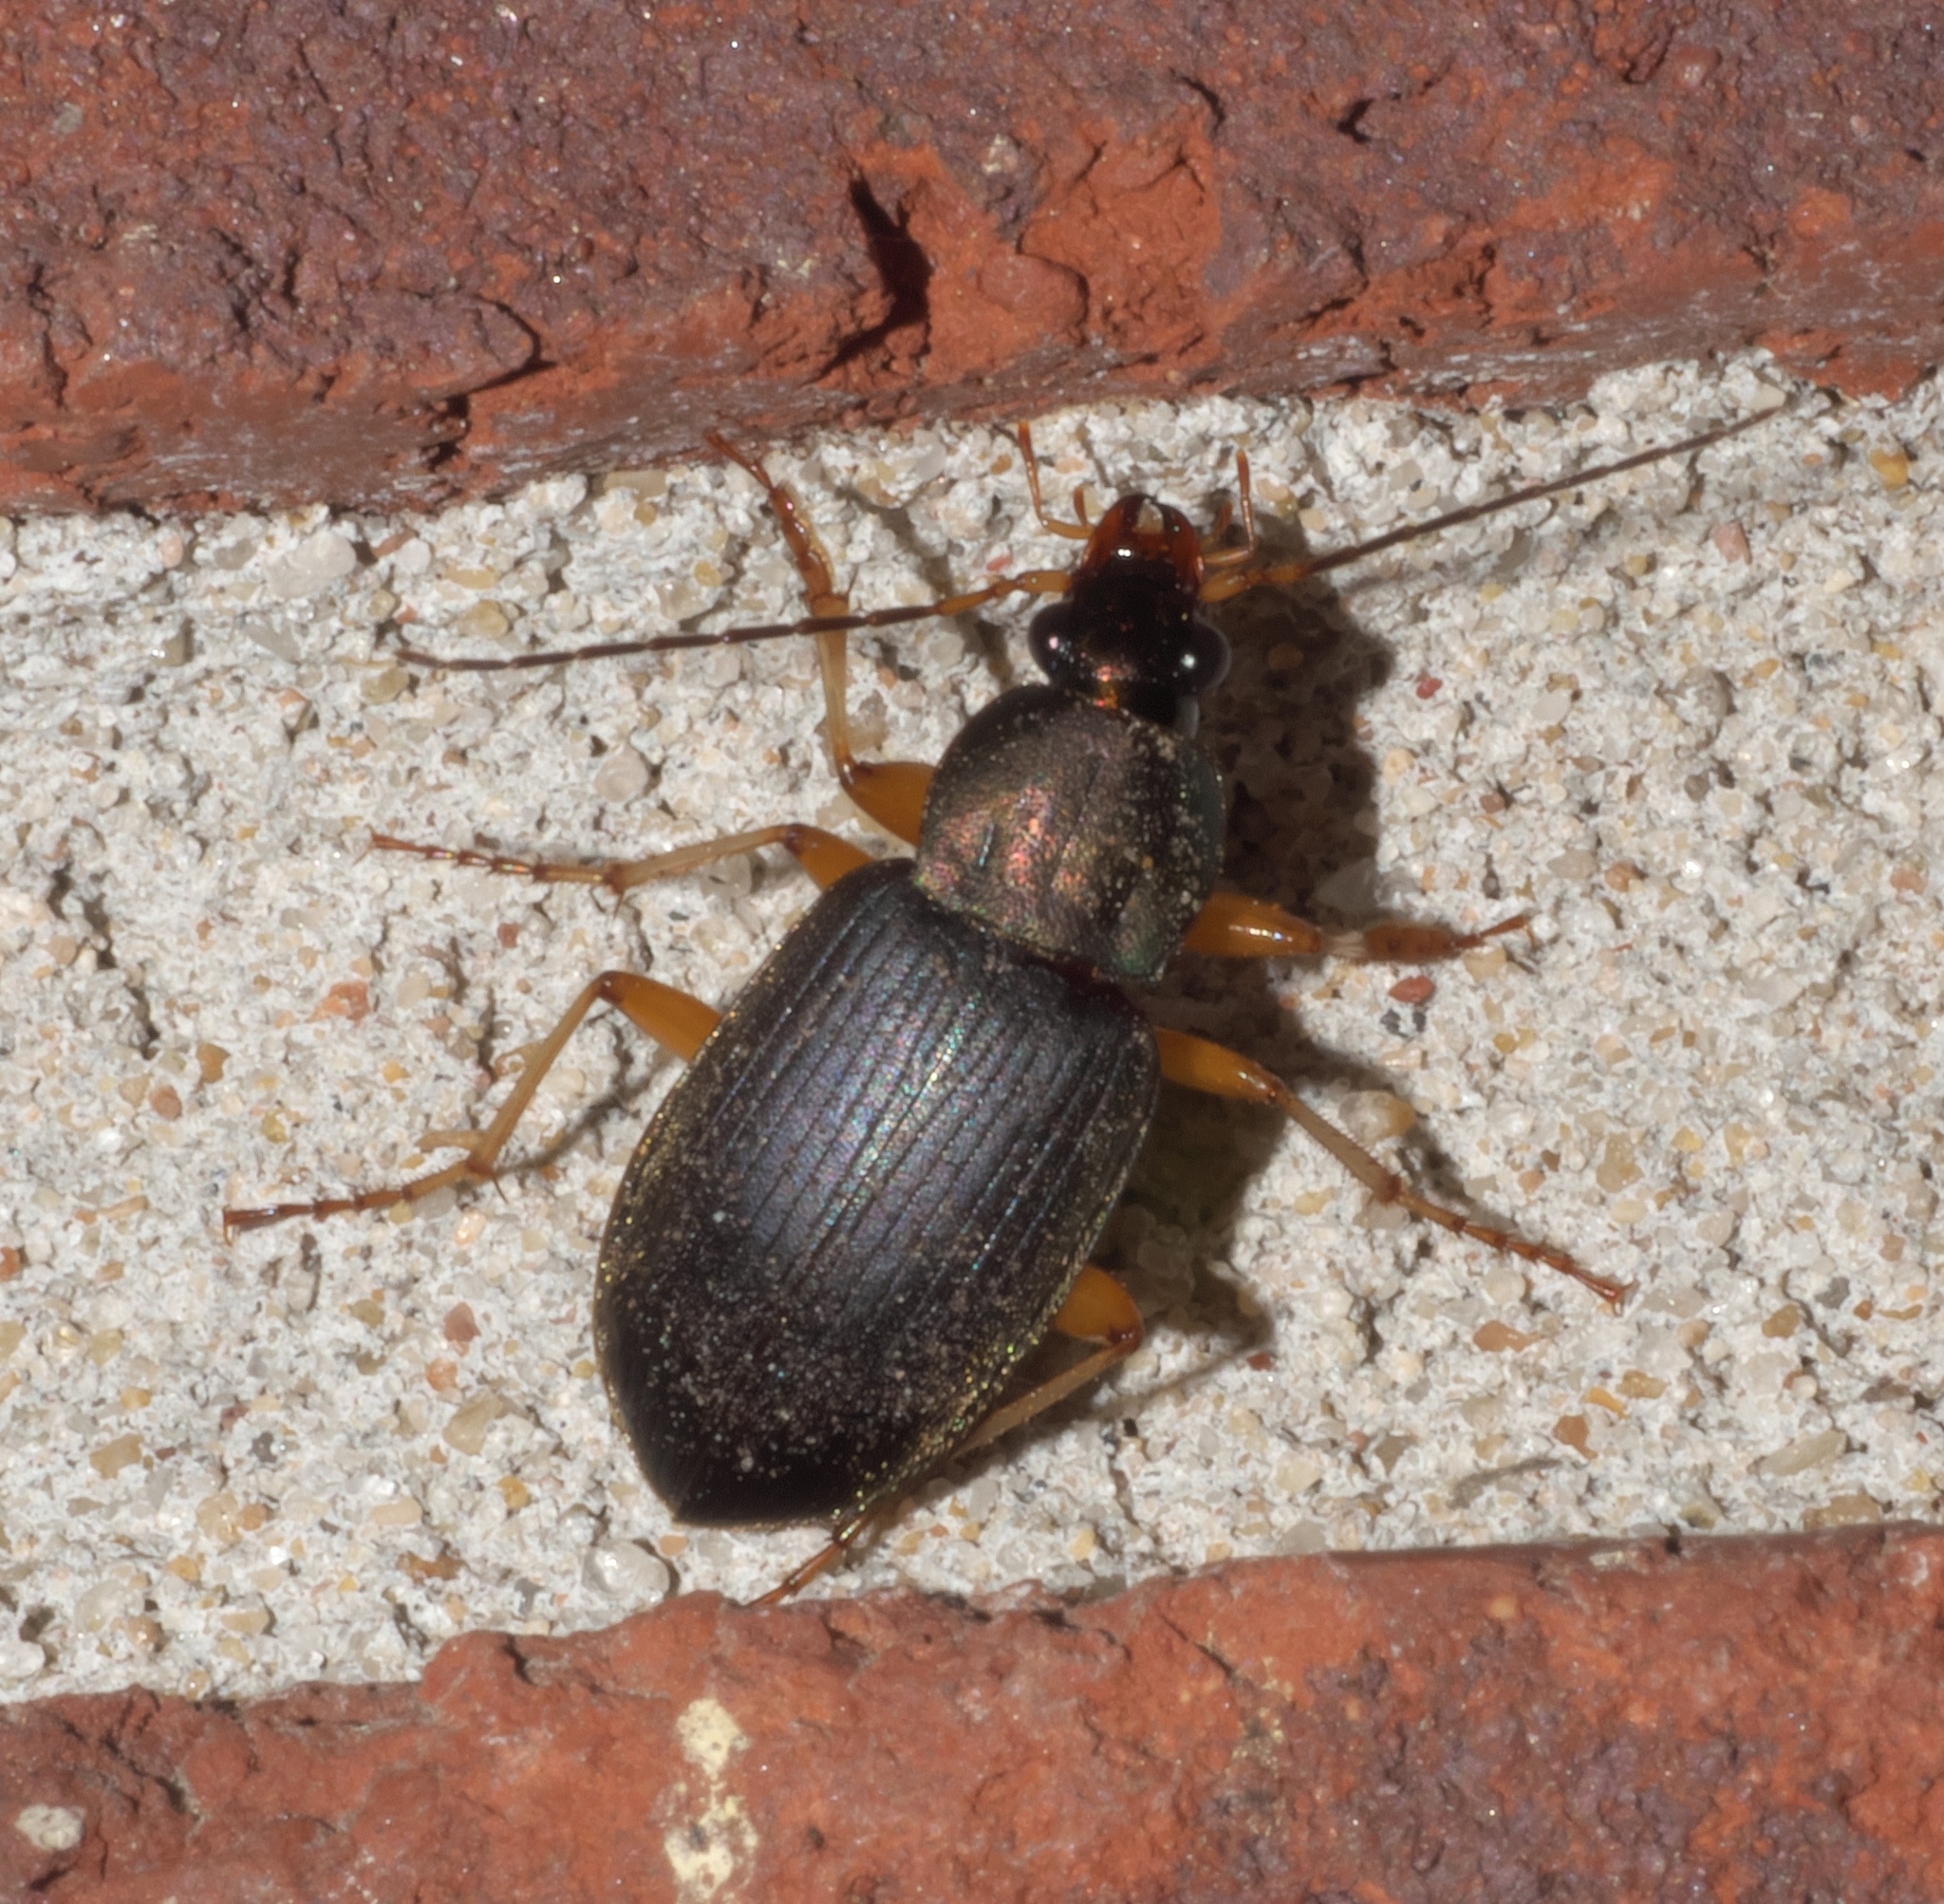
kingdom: Animalia
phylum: Arthropoda
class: Insecta
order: Coleoptera
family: Carabidae
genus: Chlaenius
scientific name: Chlaenius tricolor
